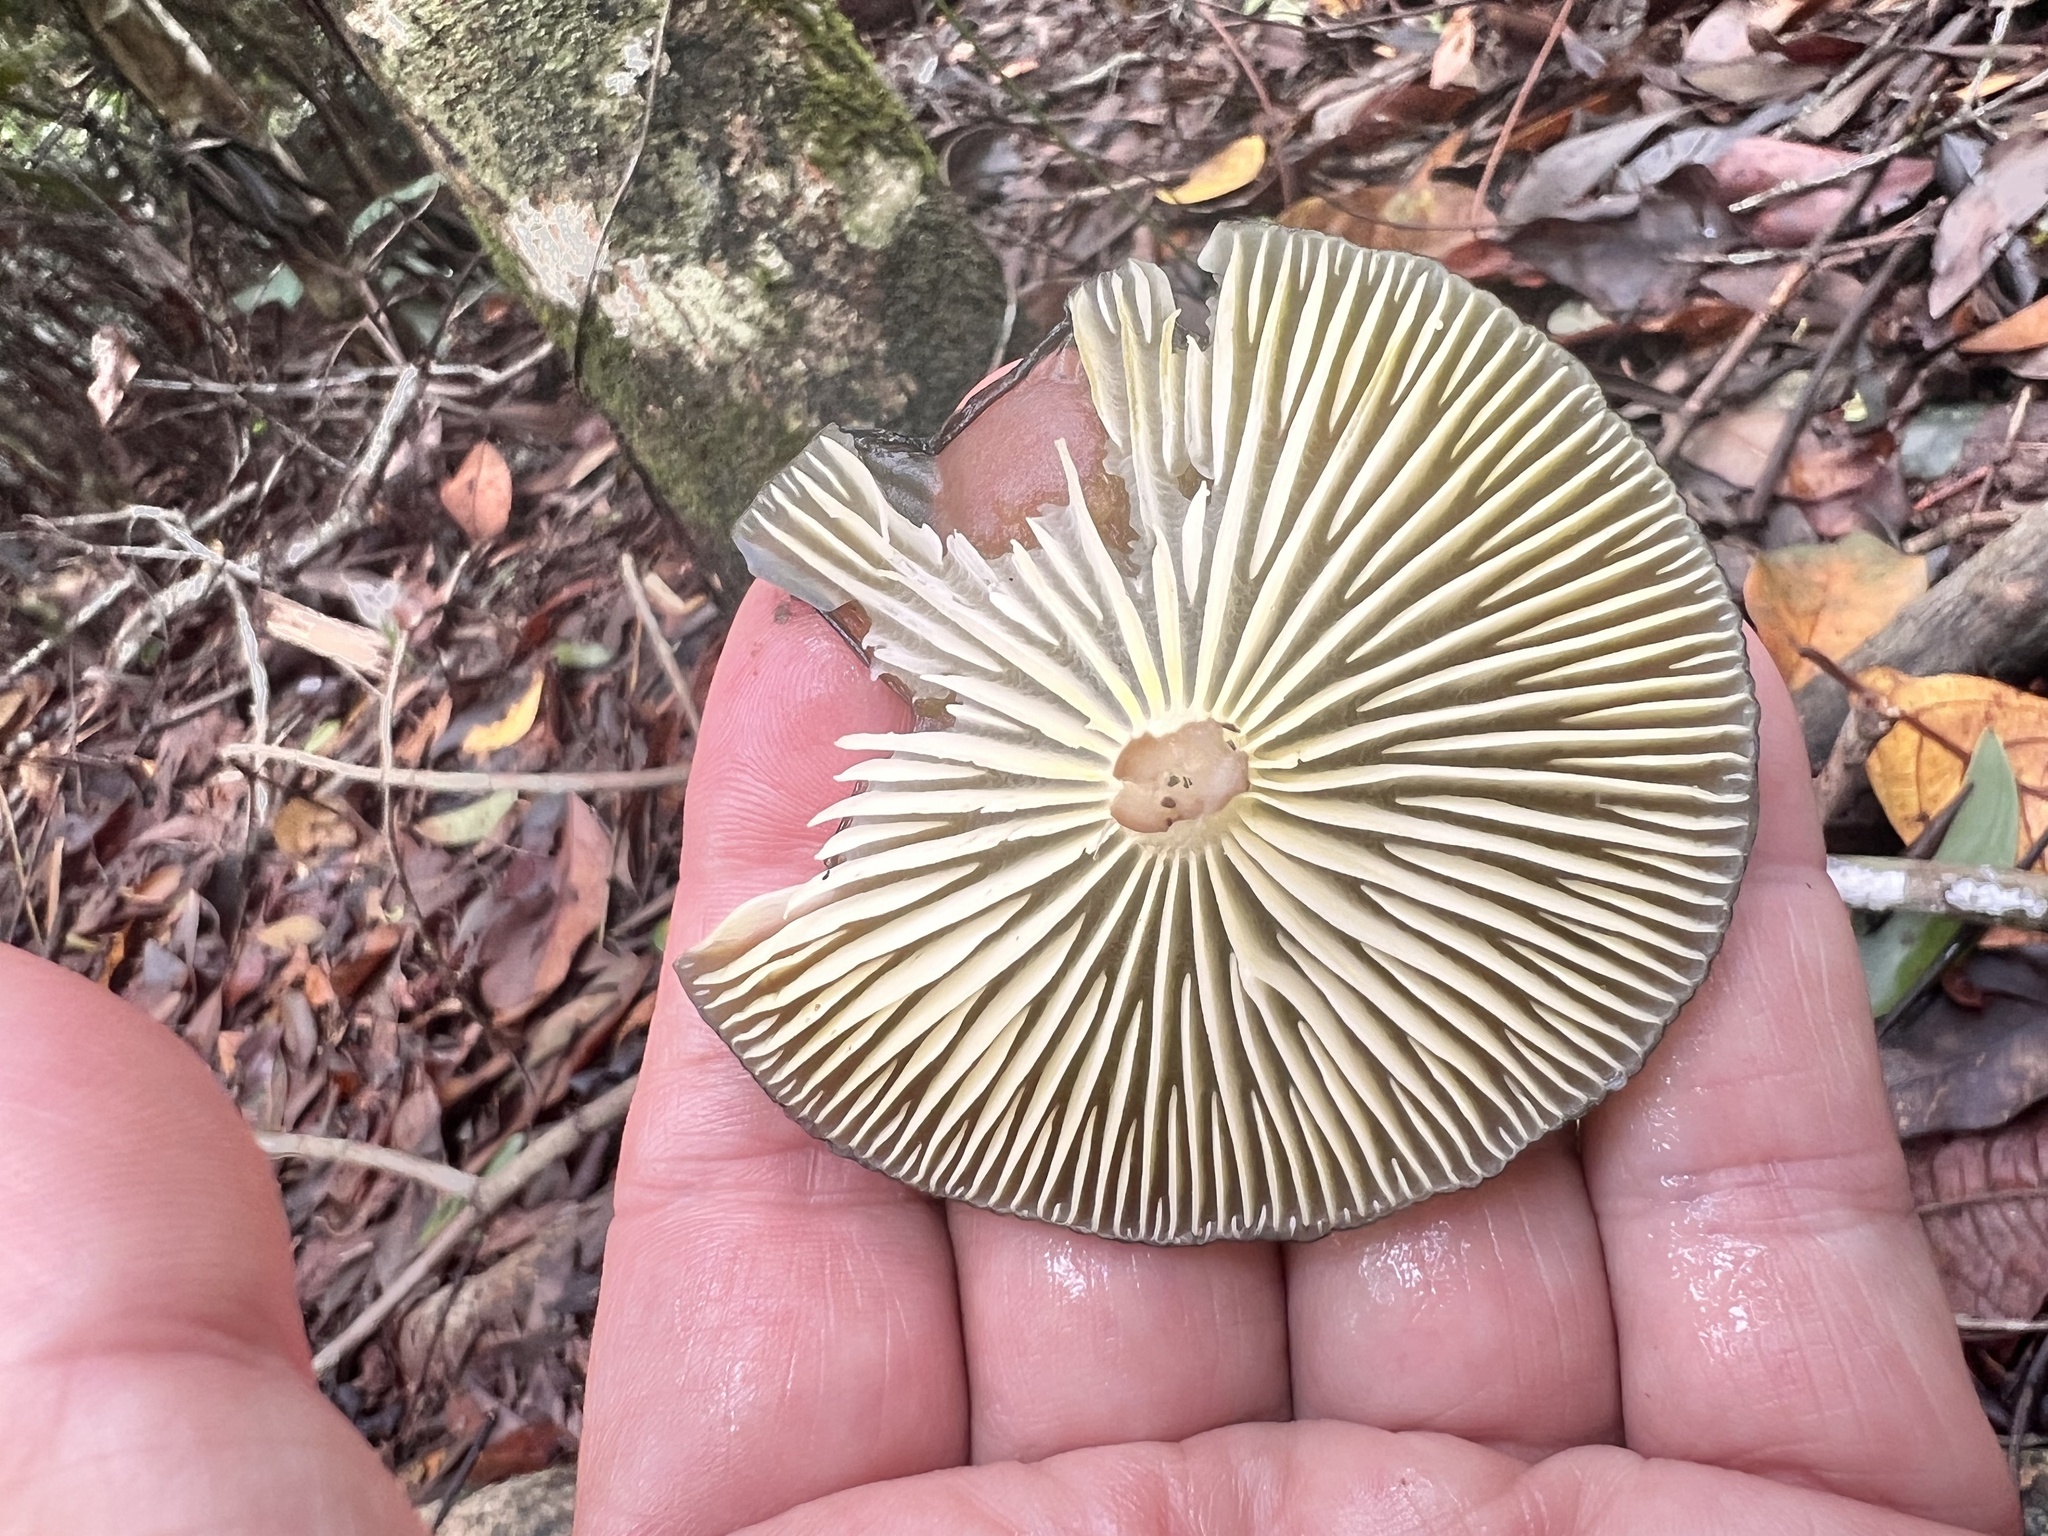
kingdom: Fungi
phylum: Basidiomycota
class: Agaricomycetes
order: Agaricales
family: Physalacriaceae
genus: Protoxerula
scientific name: Protoxerula flavo-olivacea
